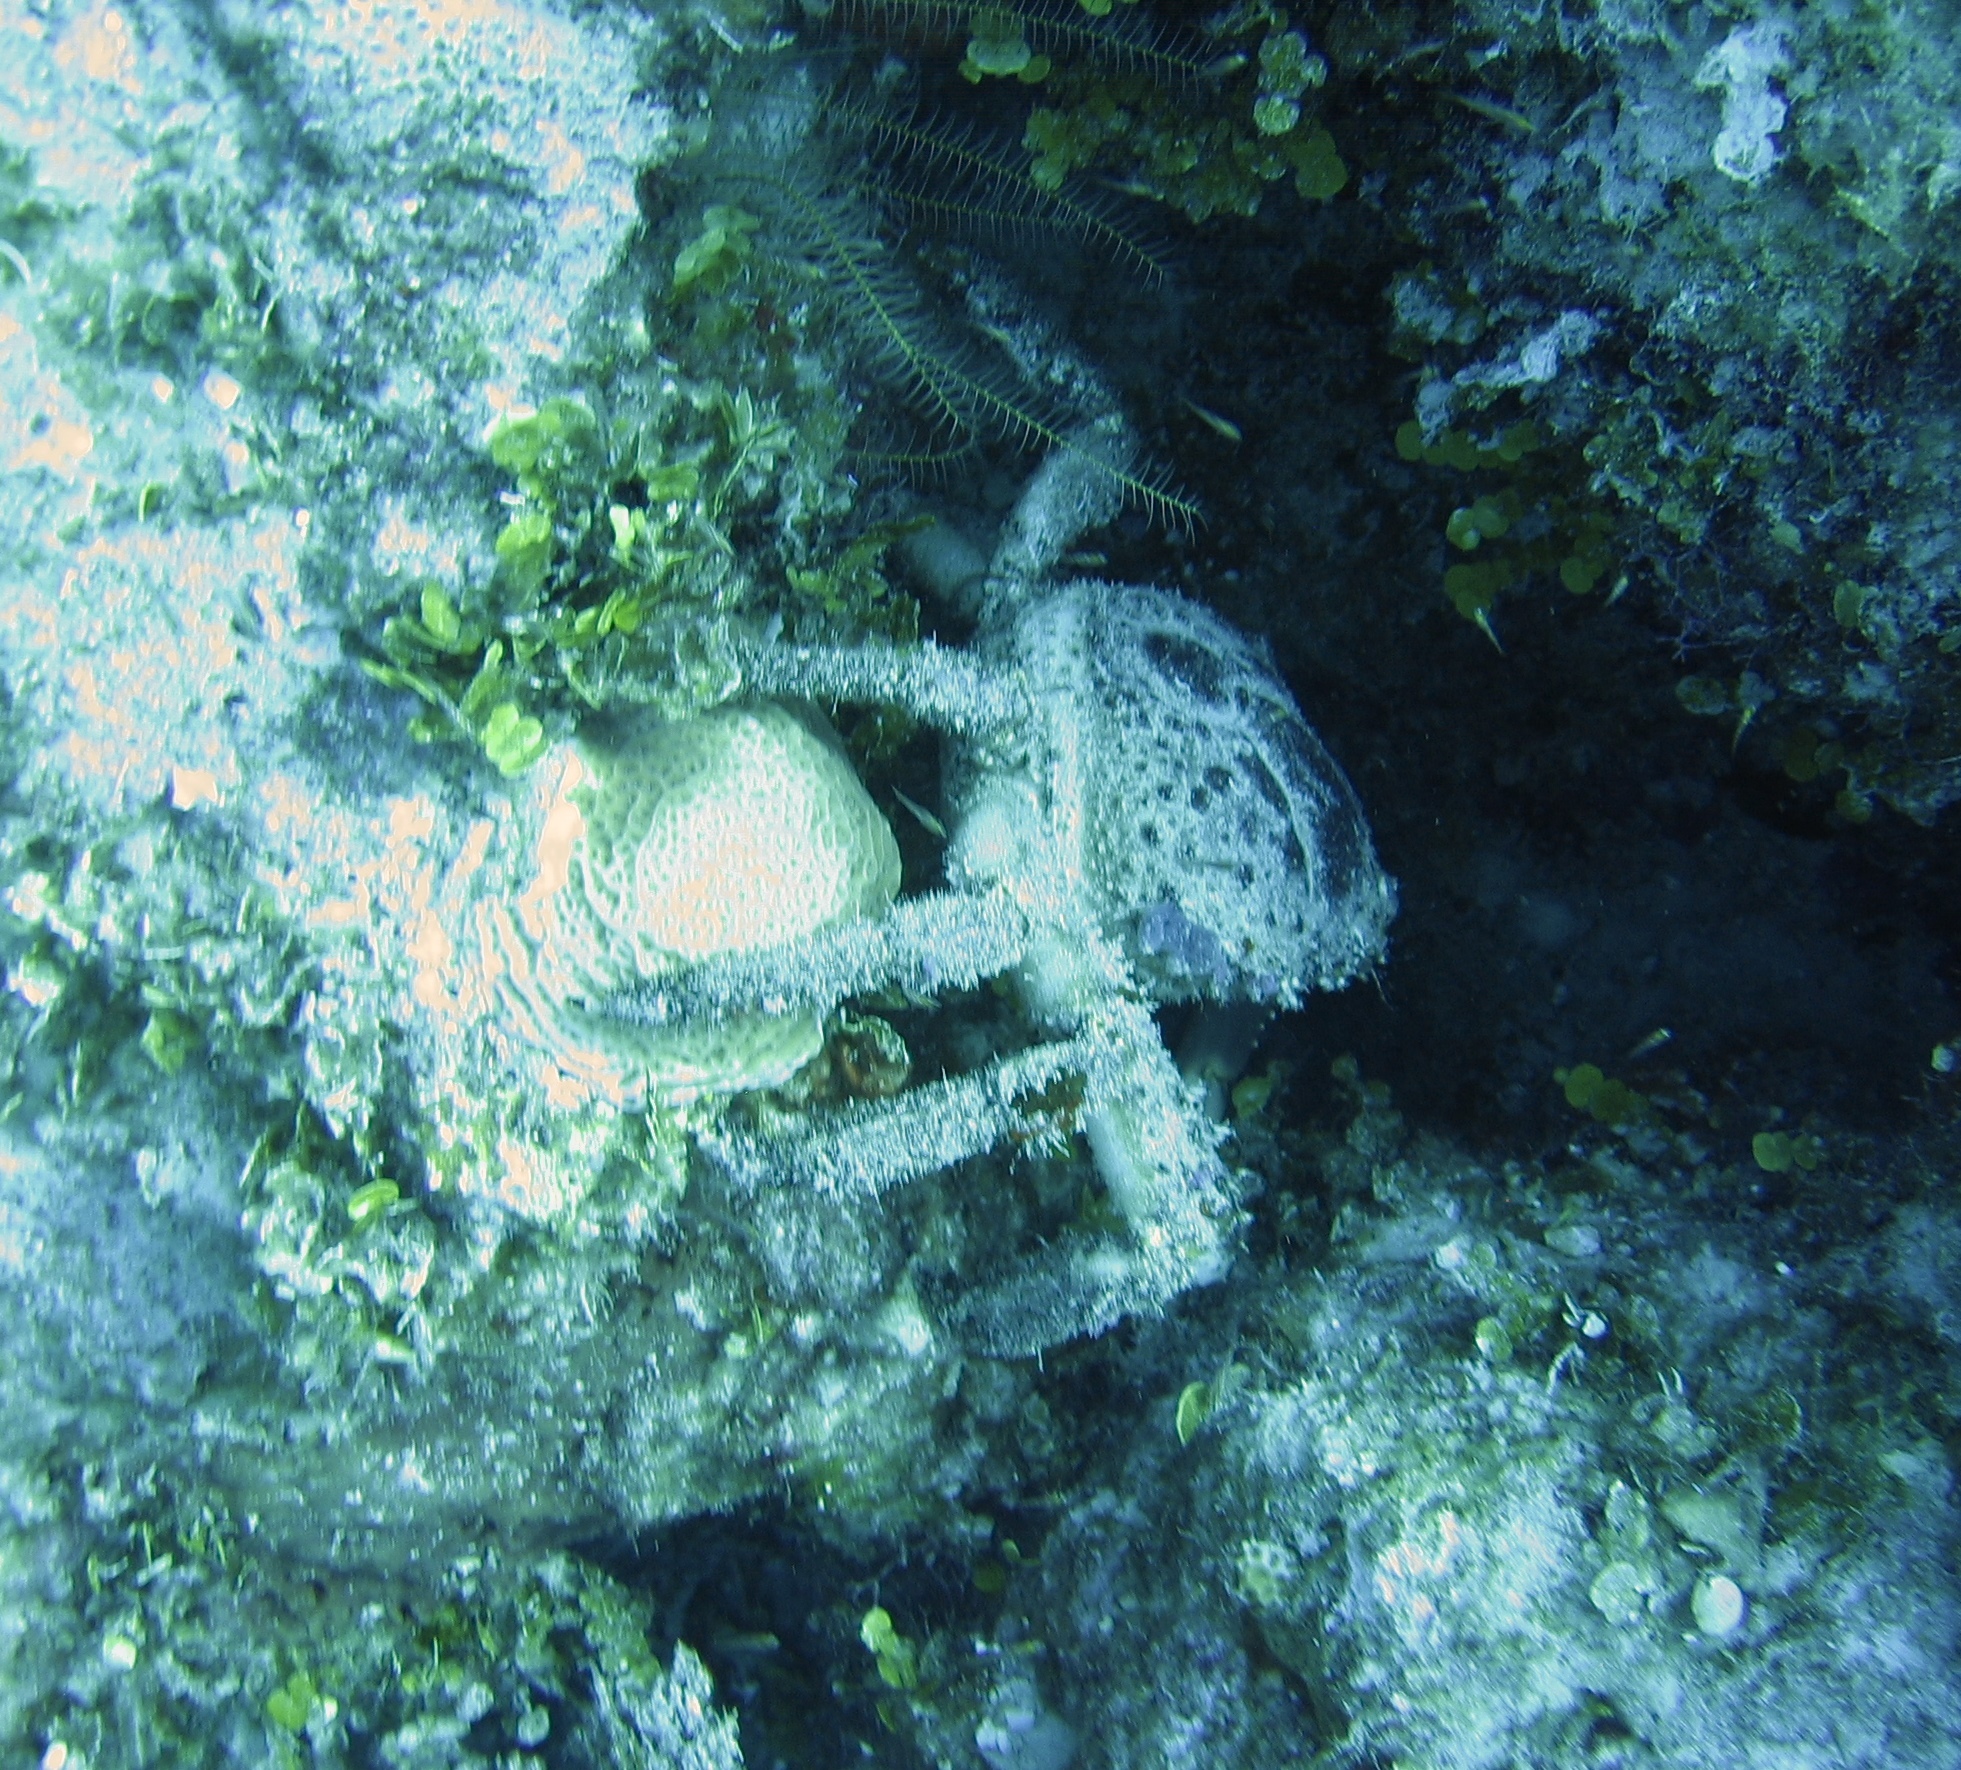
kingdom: Animalia
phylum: Arthropoda
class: Malacostraca
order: Decapoda
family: Mithracidae
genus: Amphithrax
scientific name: Amphithrax pilosus
